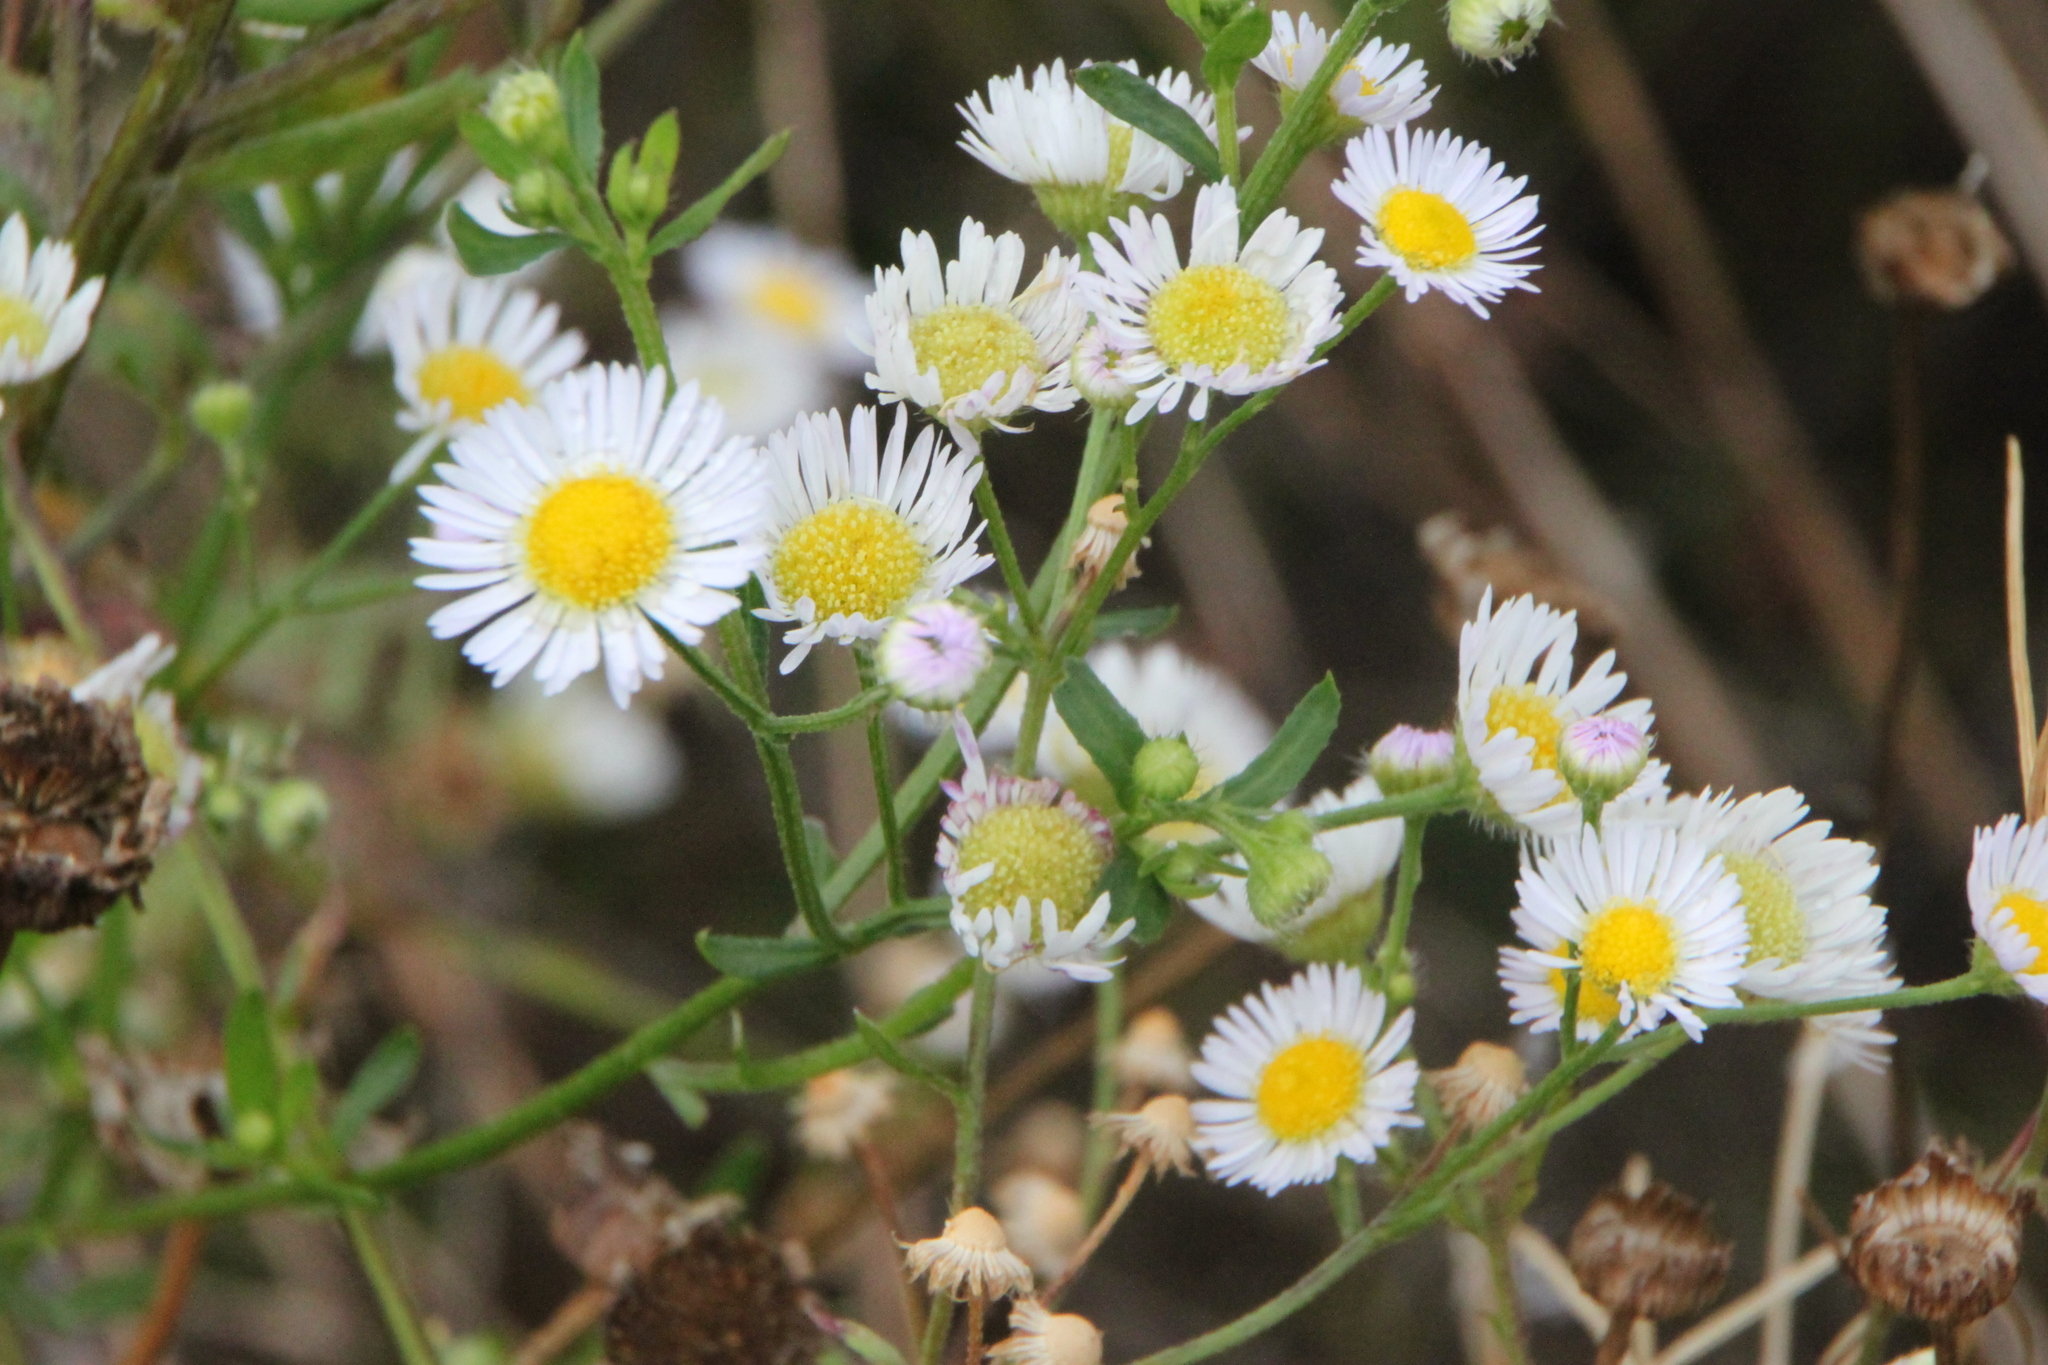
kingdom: Plantae
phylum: Tracheophyta
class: Magnoliopsida
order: Asterales
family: Asteraceae
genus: Erigeron
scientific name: Erigeron annuus
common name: Tall fleabane
